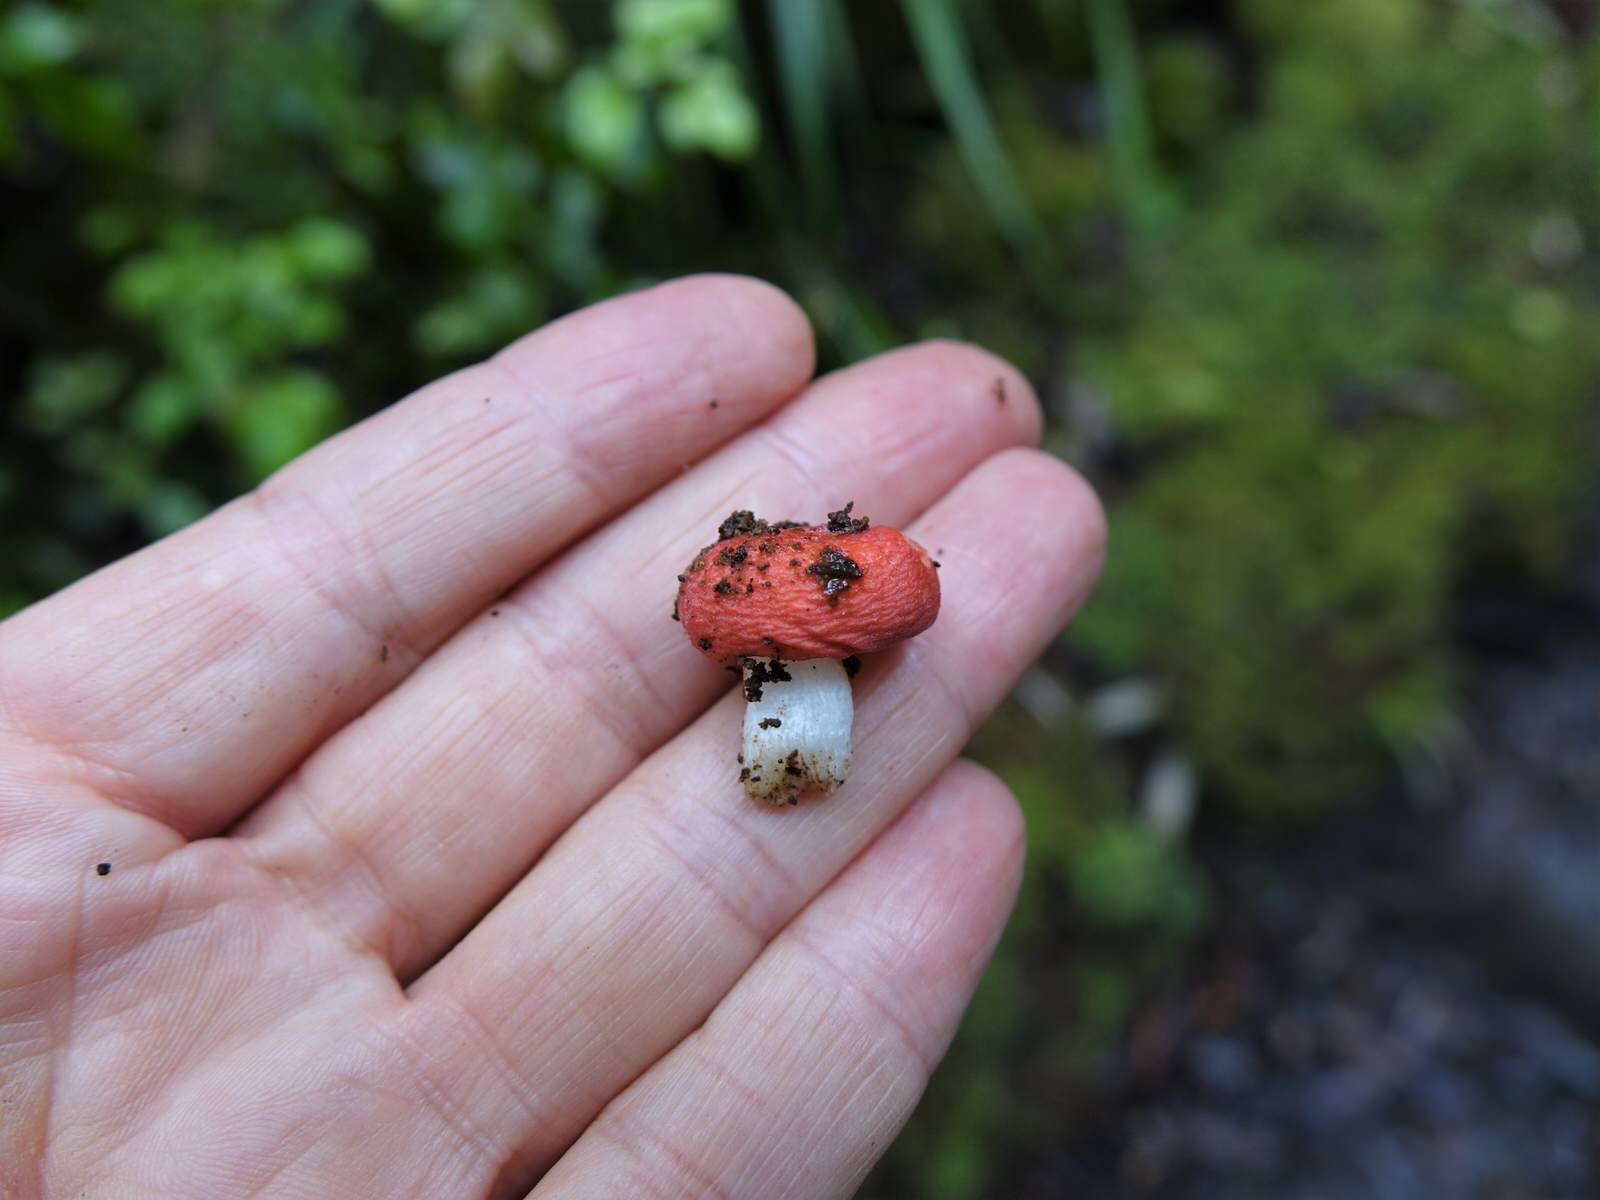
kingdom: Fungi
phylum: Basidiomycota
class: Agaricomycetes
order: Russulales
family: Russulaceae
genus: Russula
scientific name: Russula kermesina
